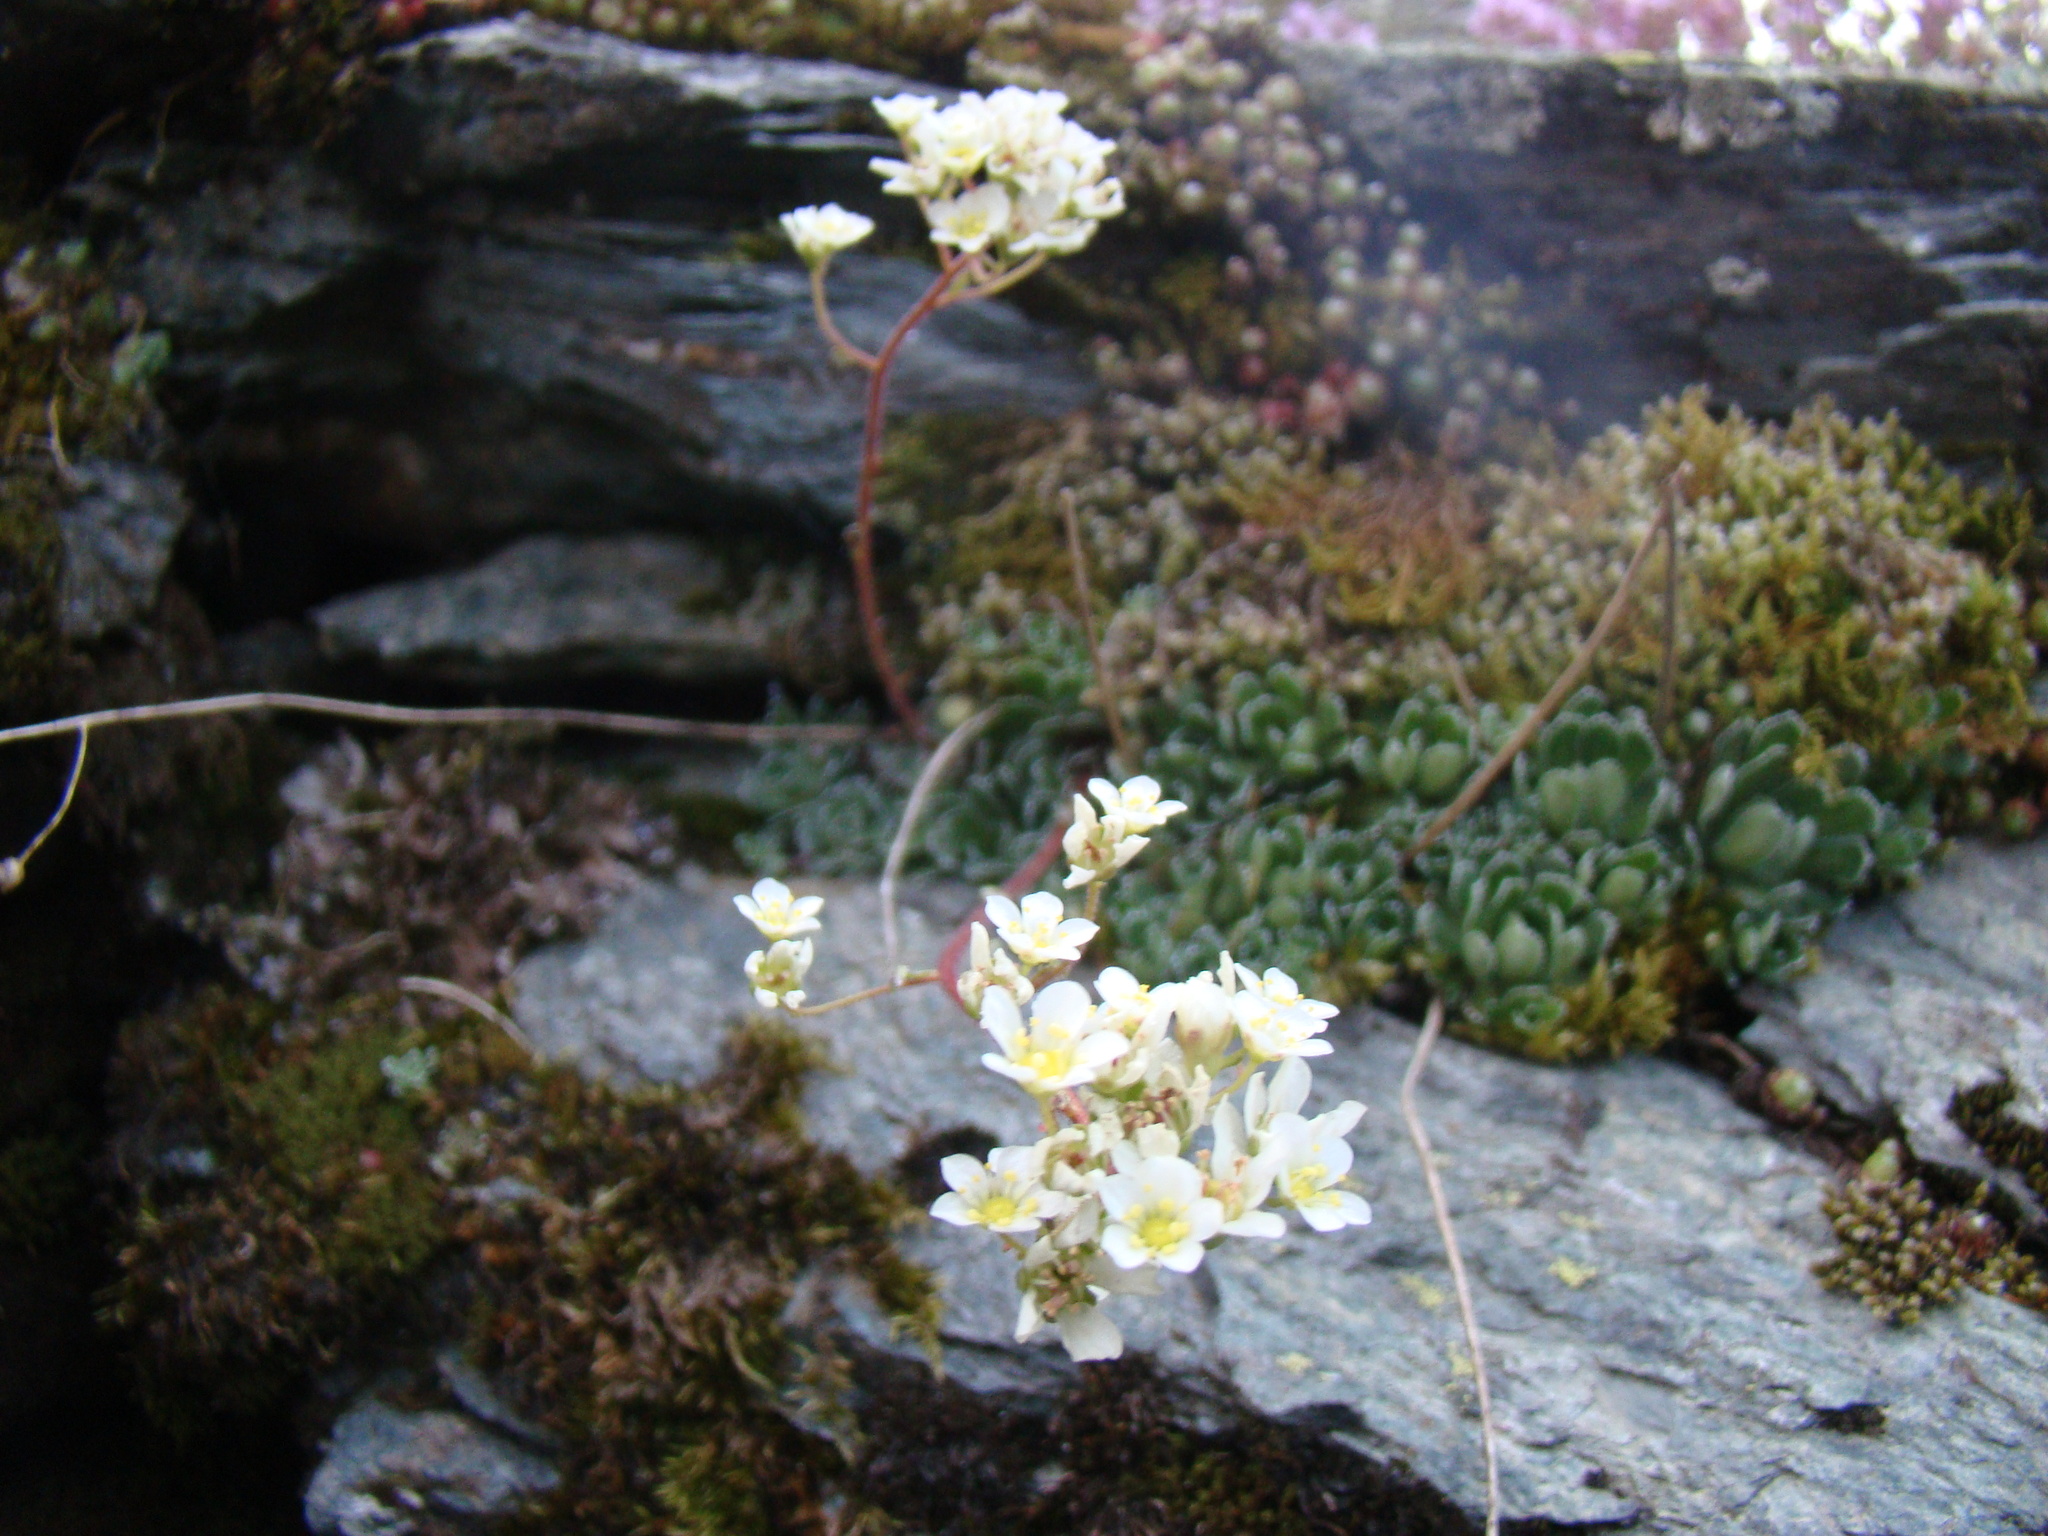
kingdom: Plantae
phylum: Tracheophyta
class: Magnoliopsida
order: Saxifragales
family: Saxifragaceae
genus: Saxifraga
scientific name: Saxifraga paniculata
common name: Livelong saxifrage
